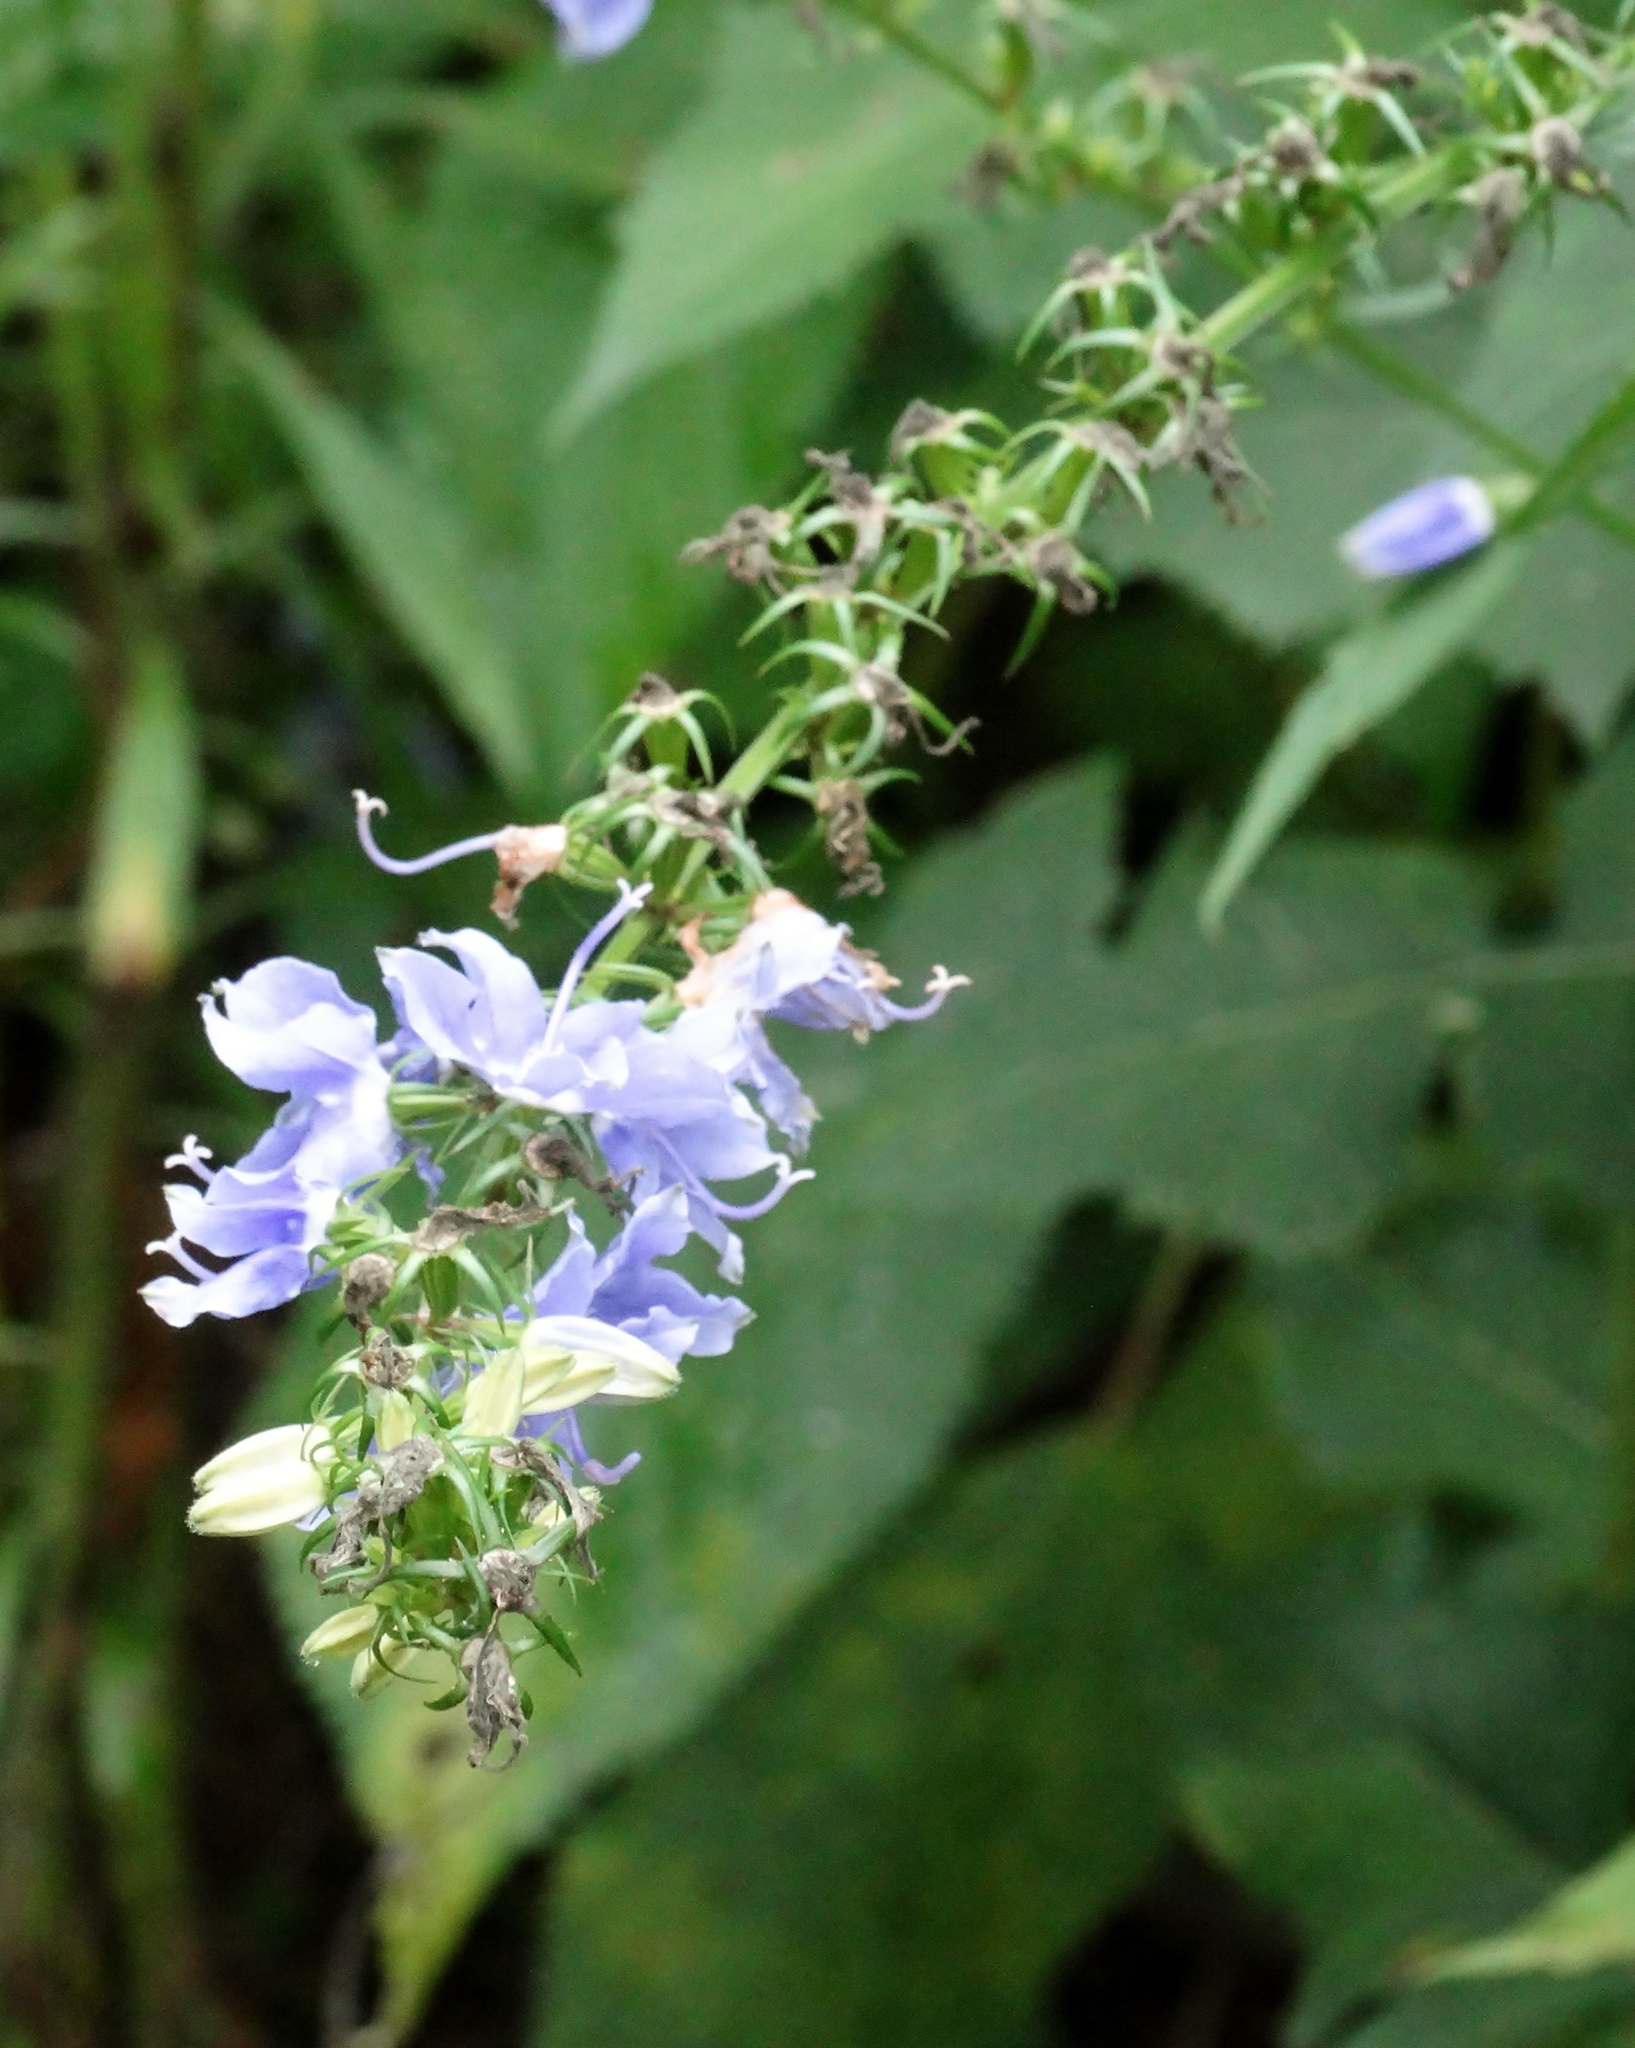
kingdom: Plantae
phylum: Tracheophyta
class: Magnoliopsida
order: Asterales
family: Campanulaceae
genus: Campanulastrum
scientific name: Campanulastrum americanum
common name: American bellflower
